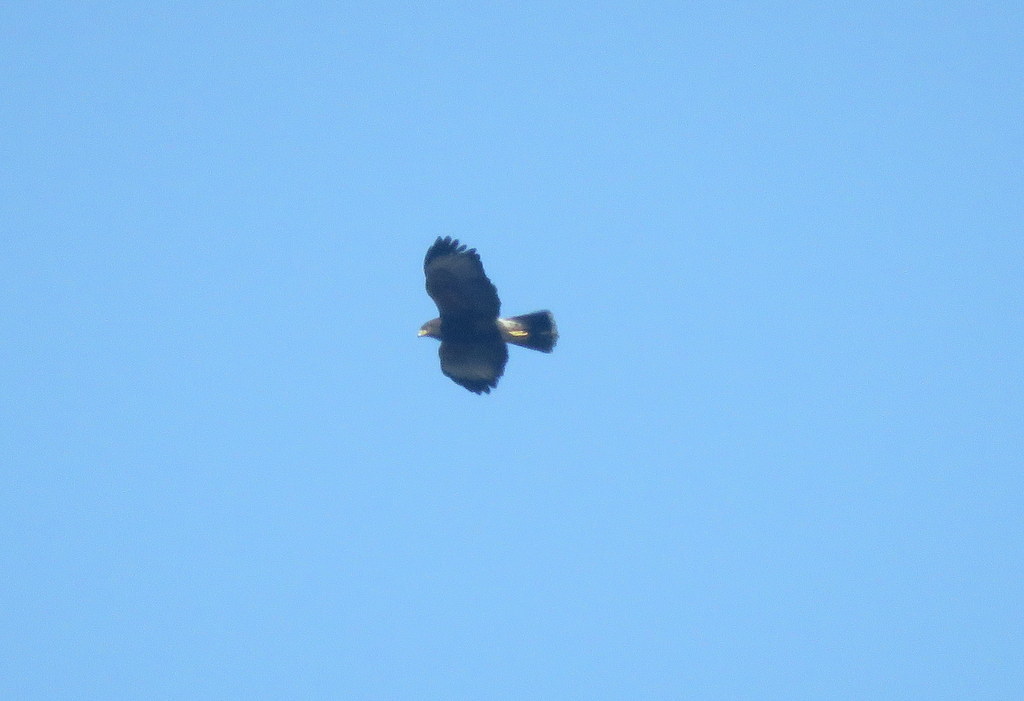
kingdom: Animalia
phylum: Chordata
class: Aves
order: Accipitriformes
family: Accipitridae
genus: Parabuteo
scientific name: Parabuteo unicinctus
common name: Harris's hawk
